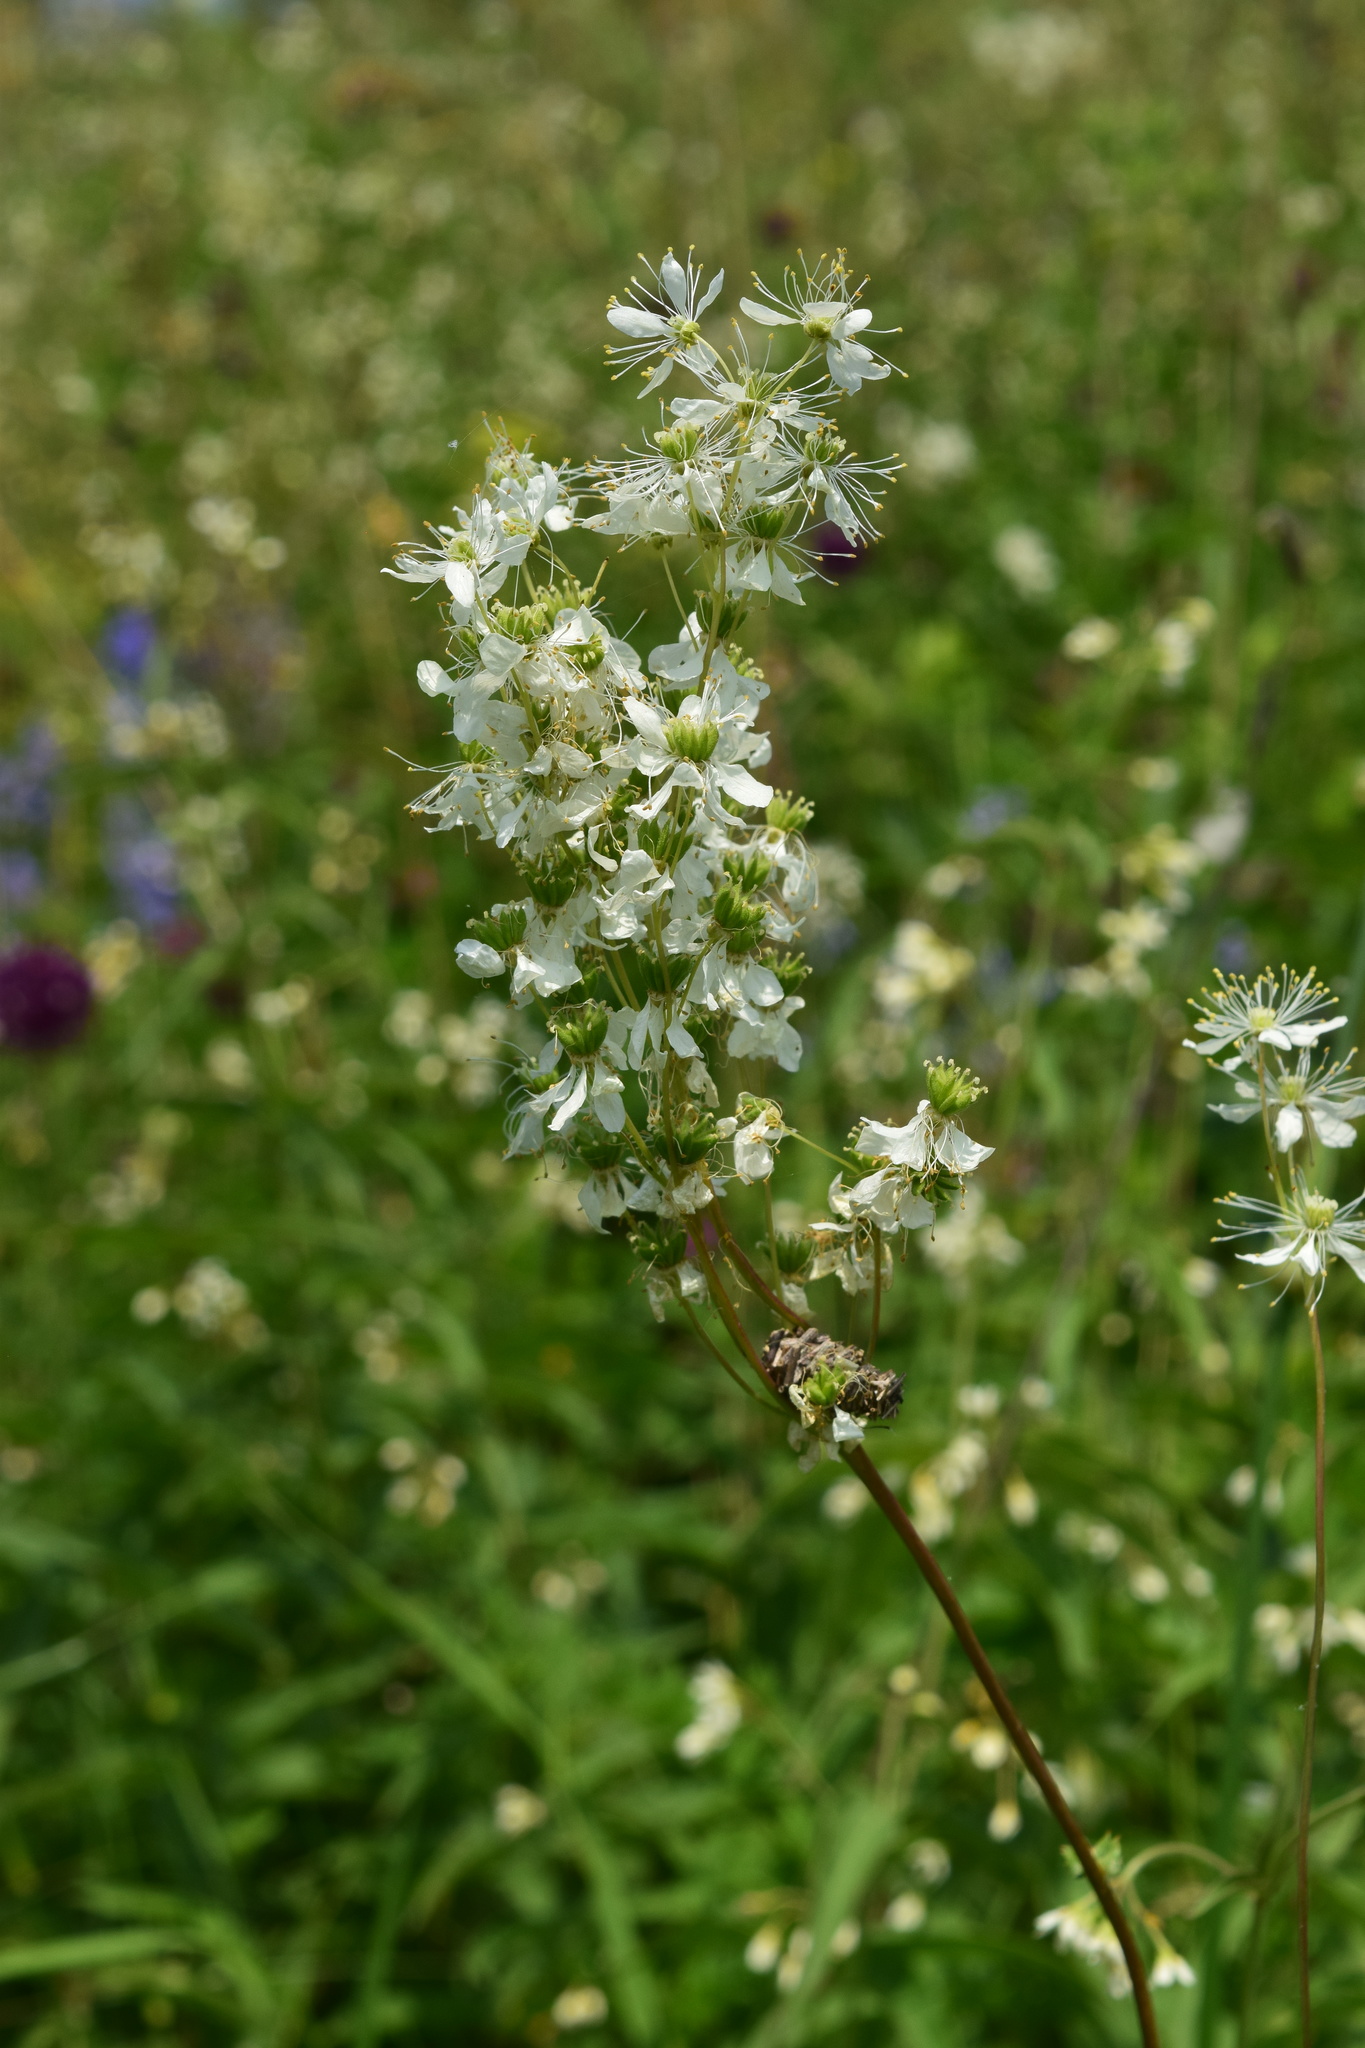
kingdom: Plantae
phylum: Tracheophyta
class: Magnoliopsida
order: Rosales
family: Rosaceae
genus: Filipendula
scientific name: Filipendula vulgaris
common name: Dropwort
